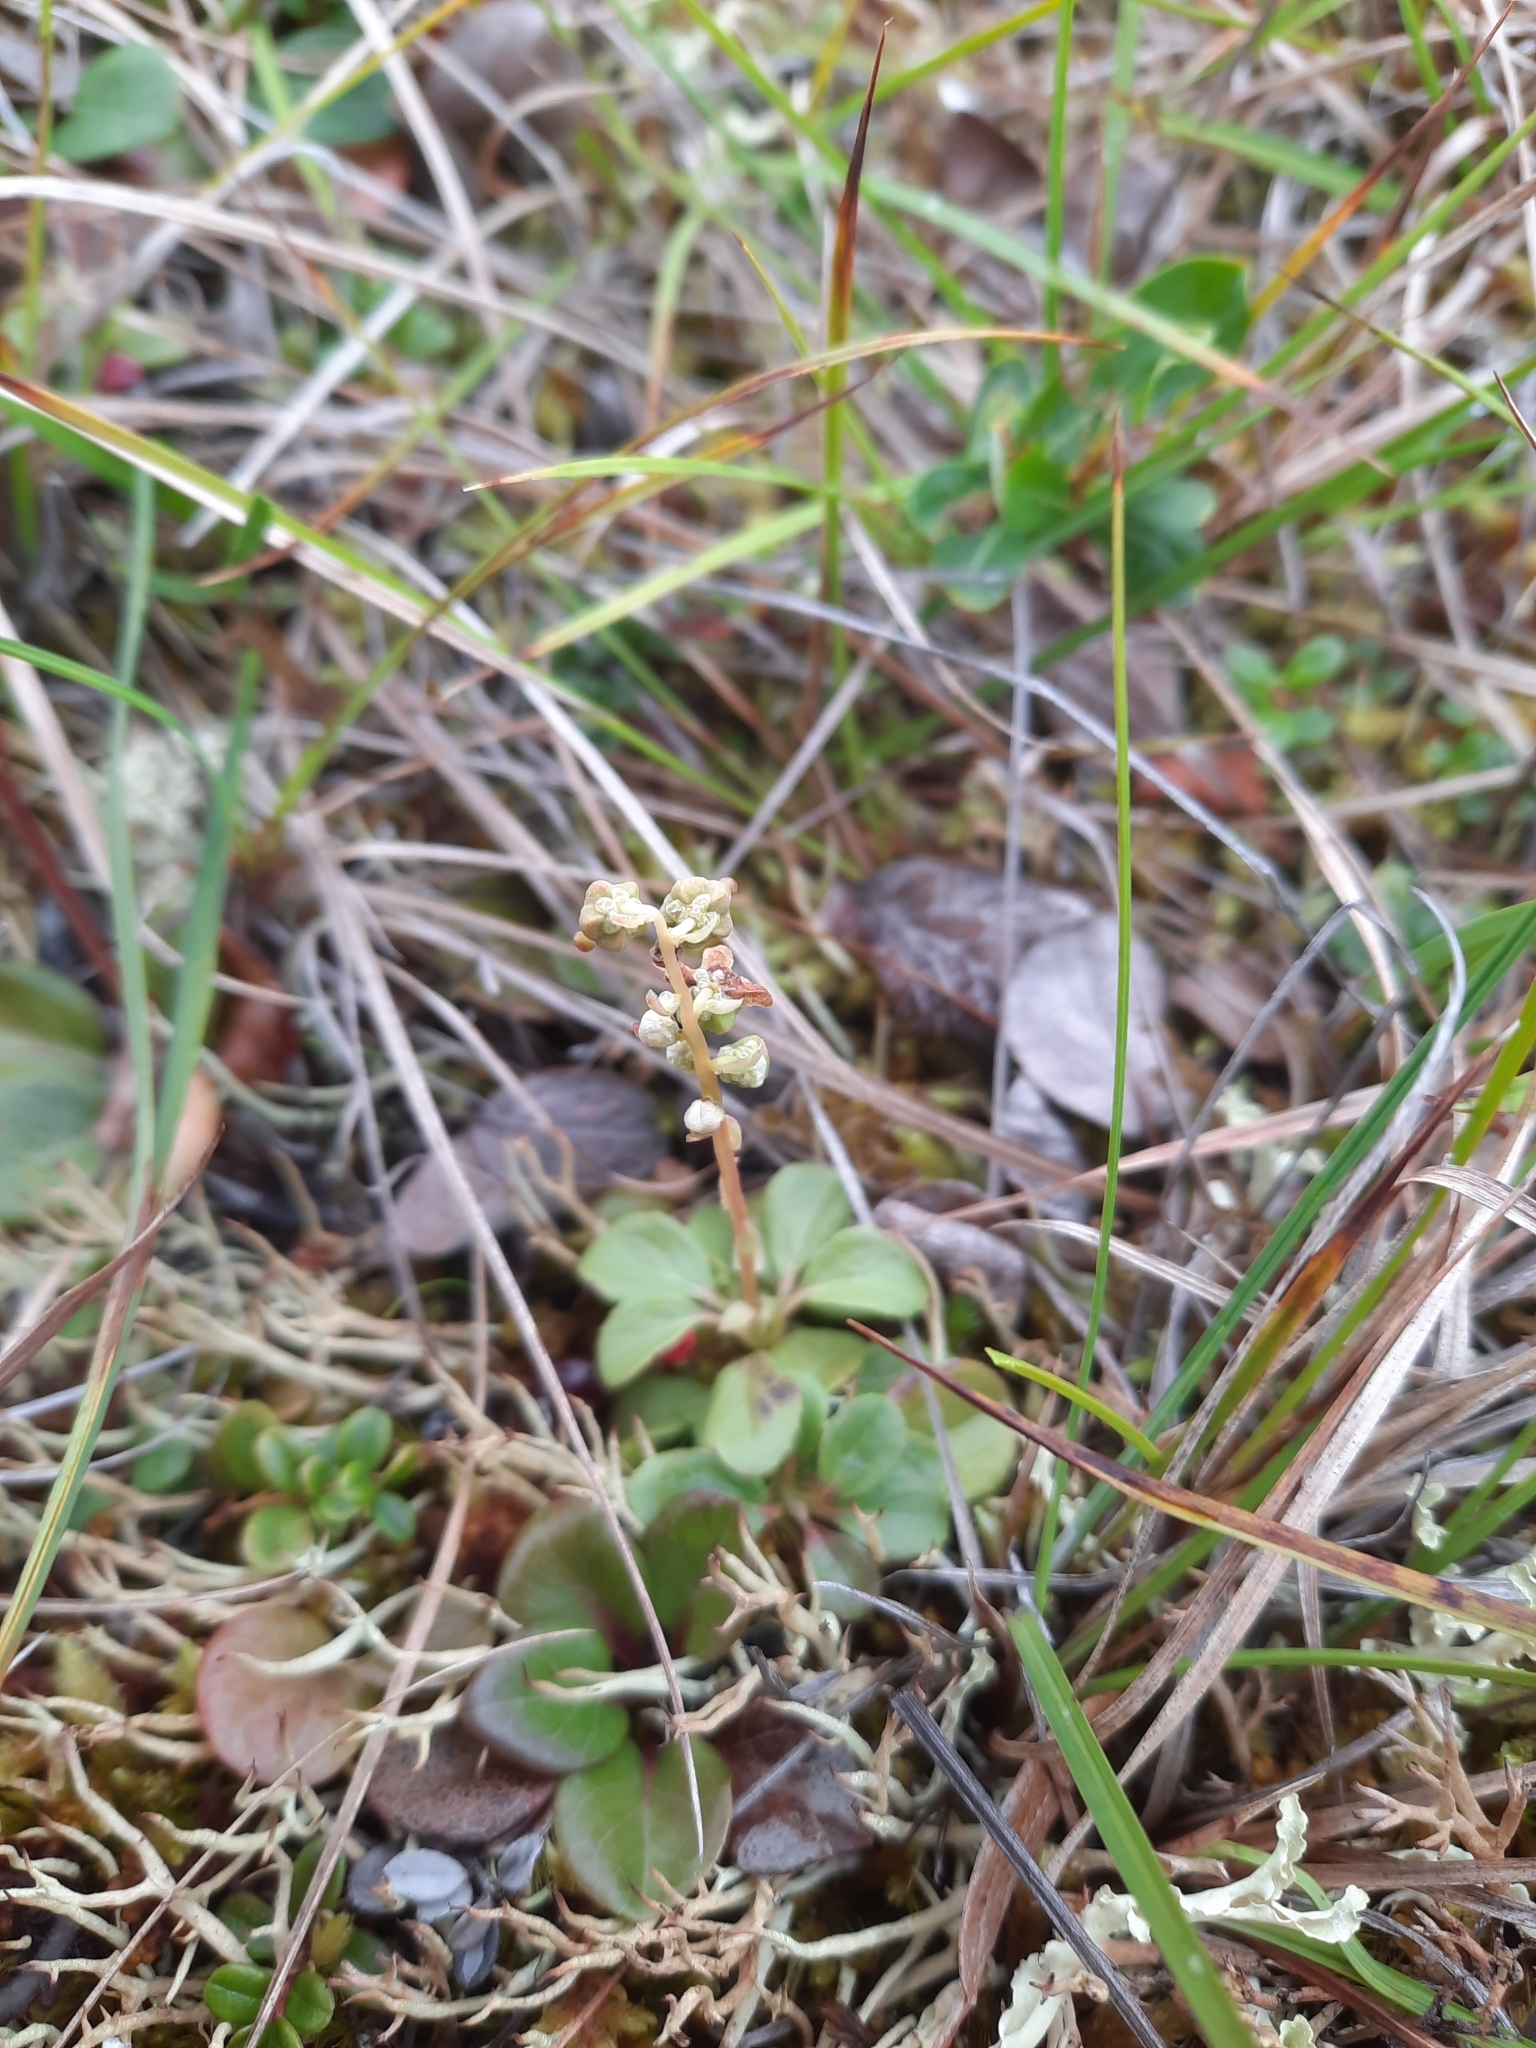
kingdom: Plantae
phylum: Tracheophyta
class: Magnoliopsida
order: Ericales
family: Ericaceae
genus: Pyrola
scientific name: Pyrola minor
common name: Common wintergreen
